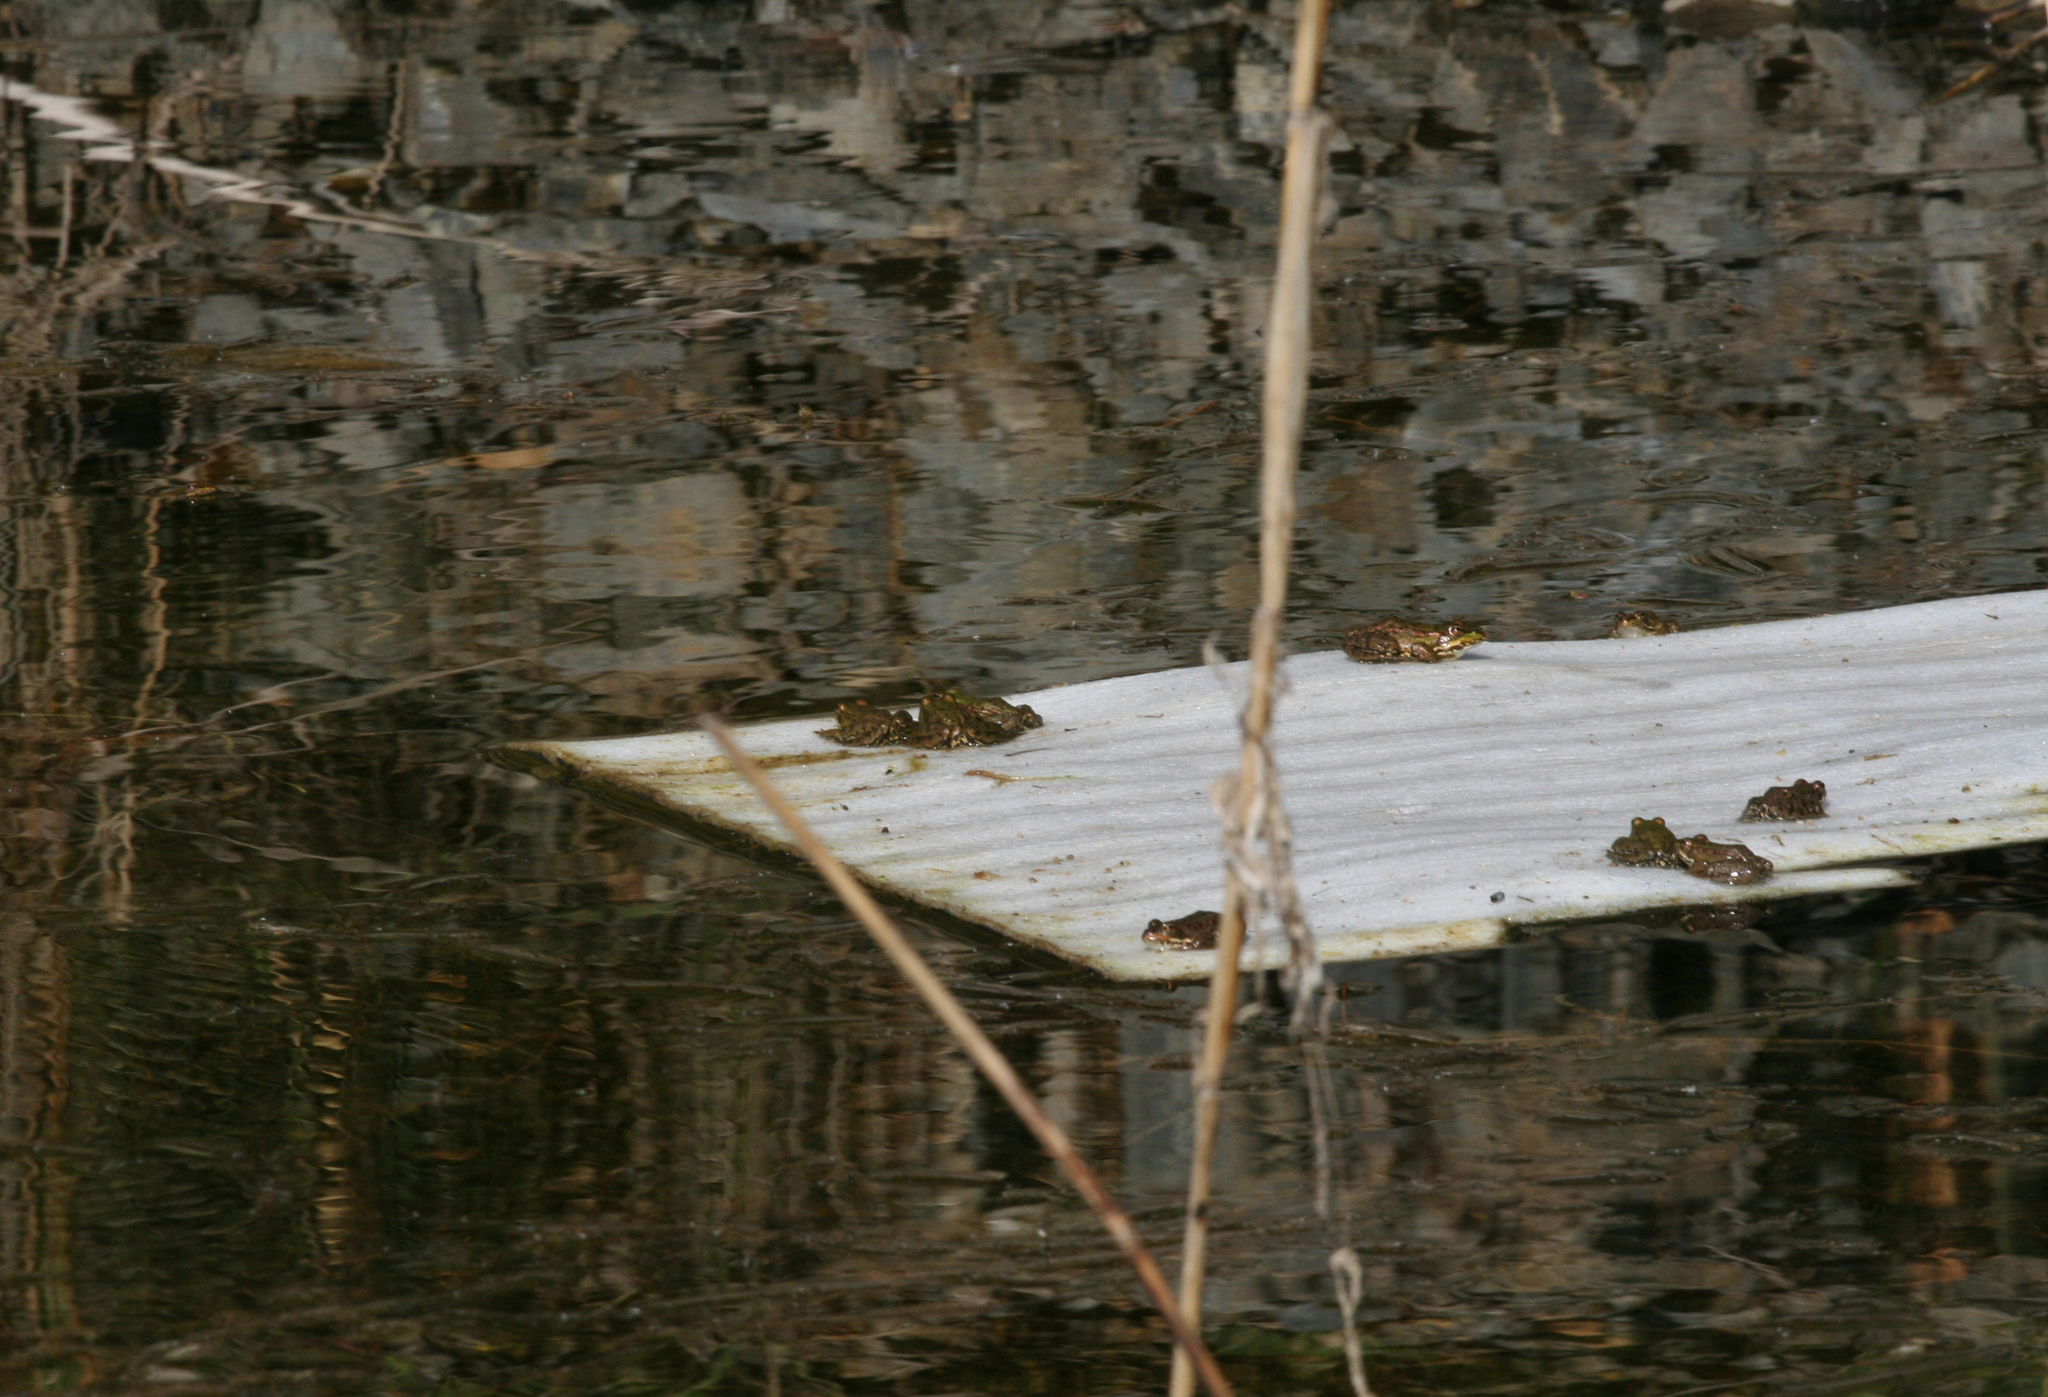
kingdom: Animalia
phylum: Chordata
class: Amphibia
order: Anura
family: Ranidae
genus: Pelophylax
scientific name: Pelophylax
